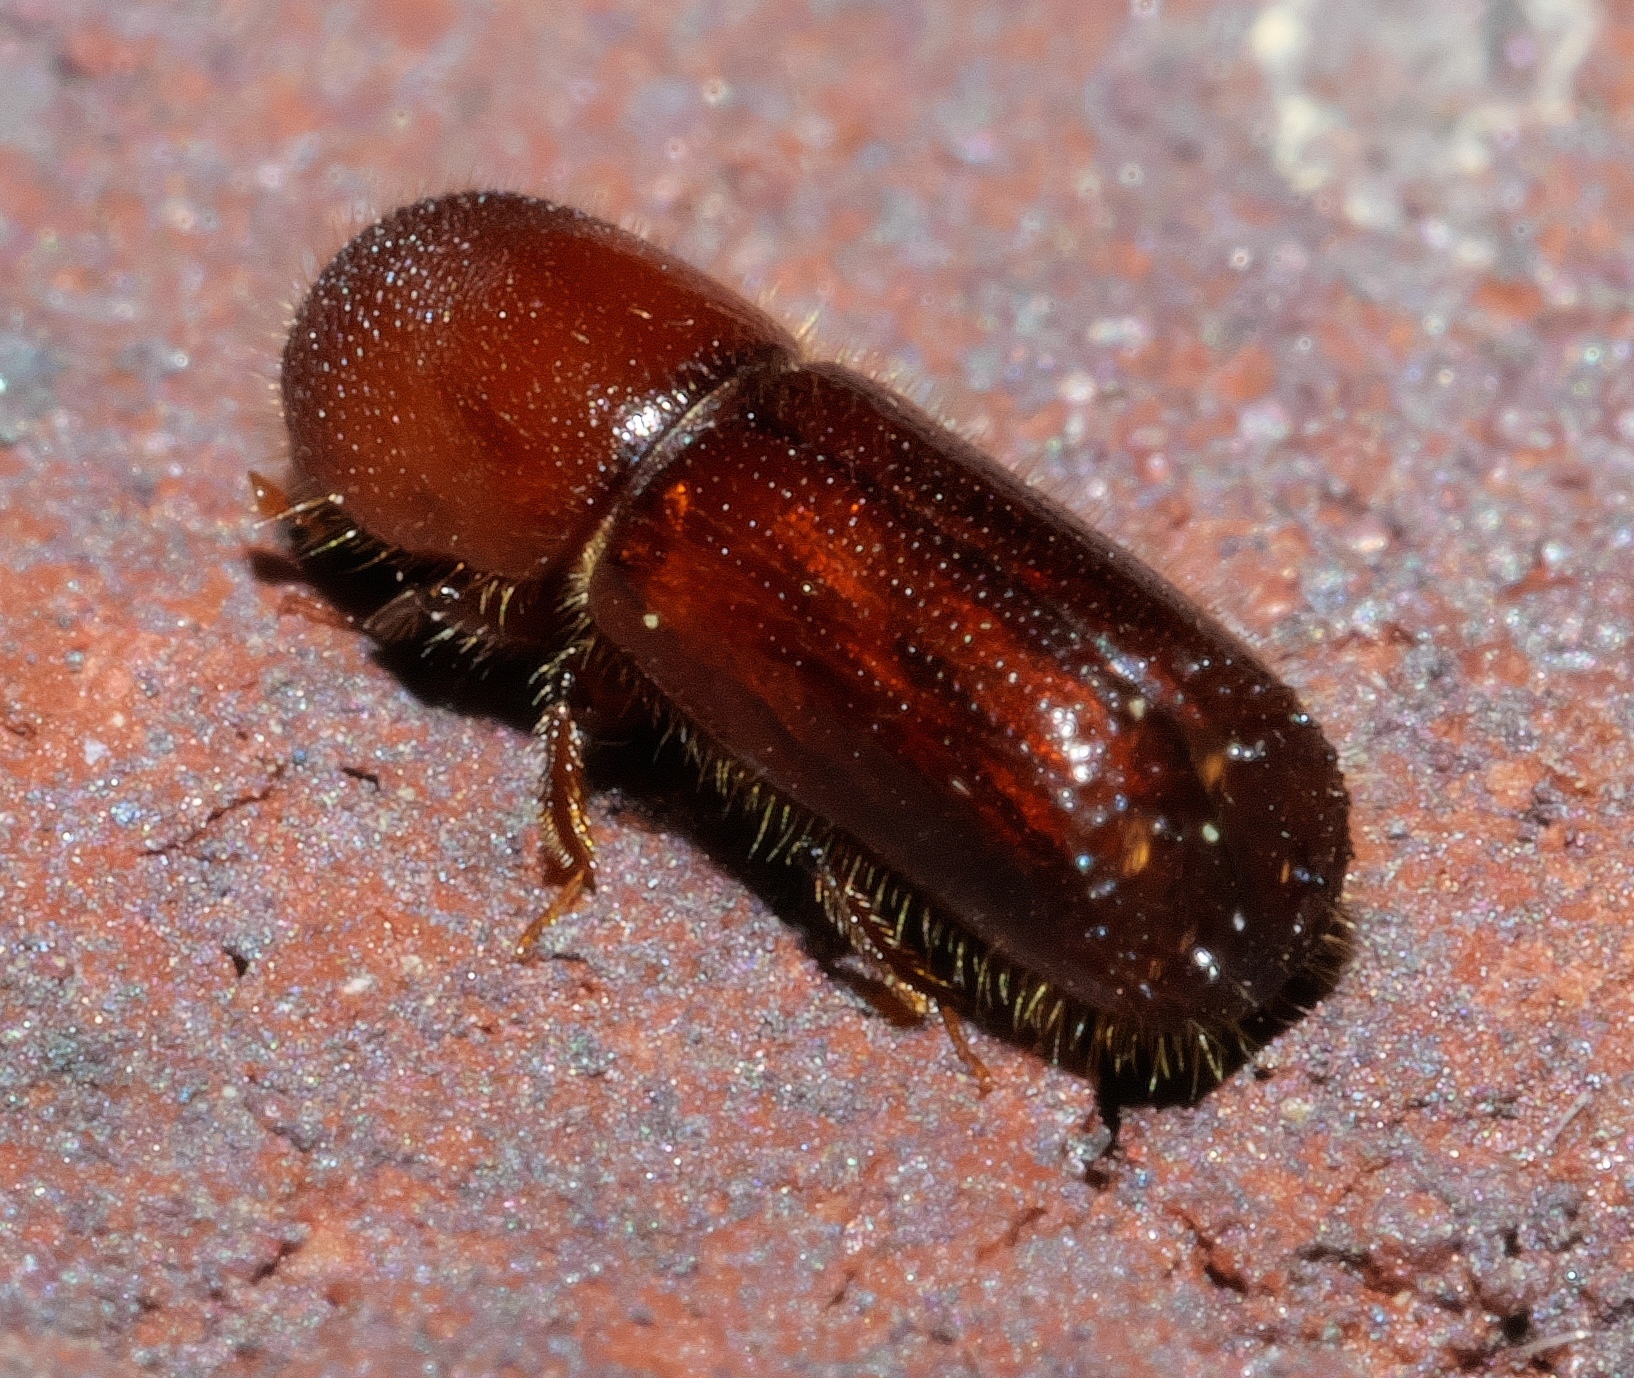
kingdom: Animalia
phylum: Arthropoda
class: Insecta
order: Coleoptera
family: Curculionidae
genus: Xyleborus
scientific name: Xyleborus celsus
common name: Weevil
